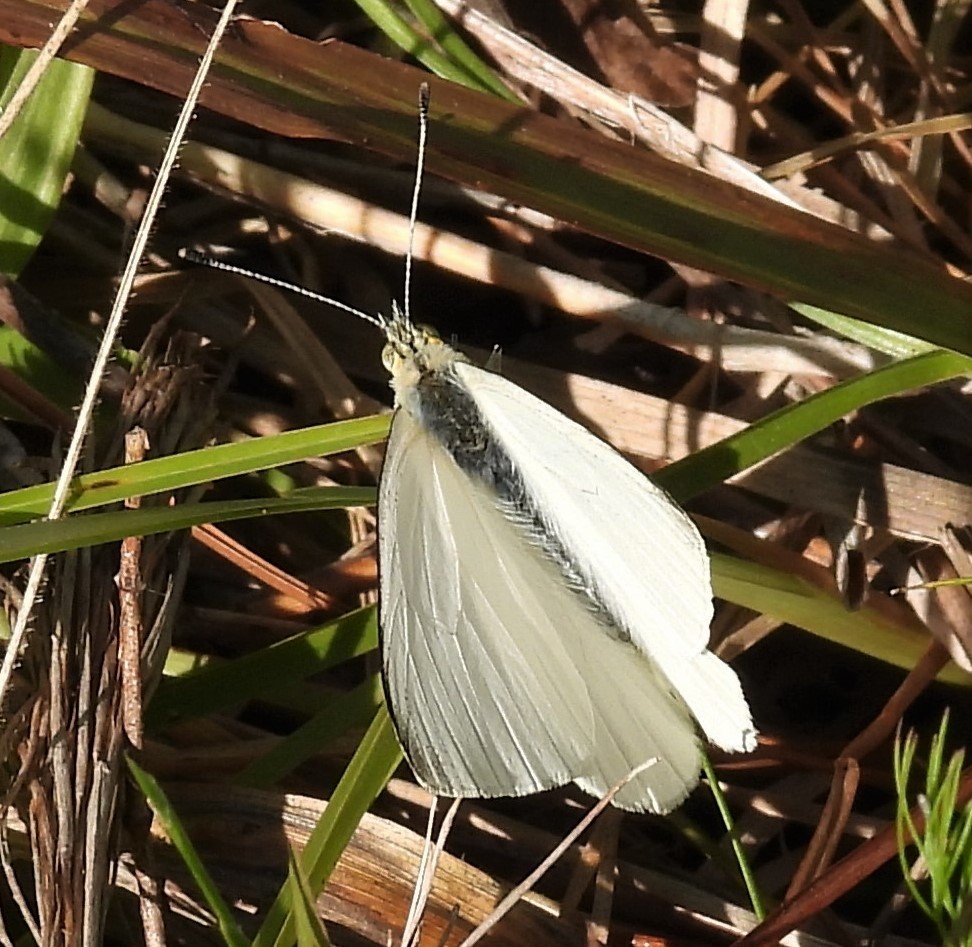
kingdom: Animalia
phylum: Arthropoda
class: Insecta
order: Lepidoptera
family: Pieridae
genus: Theochila
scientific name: Theochila maenacte
